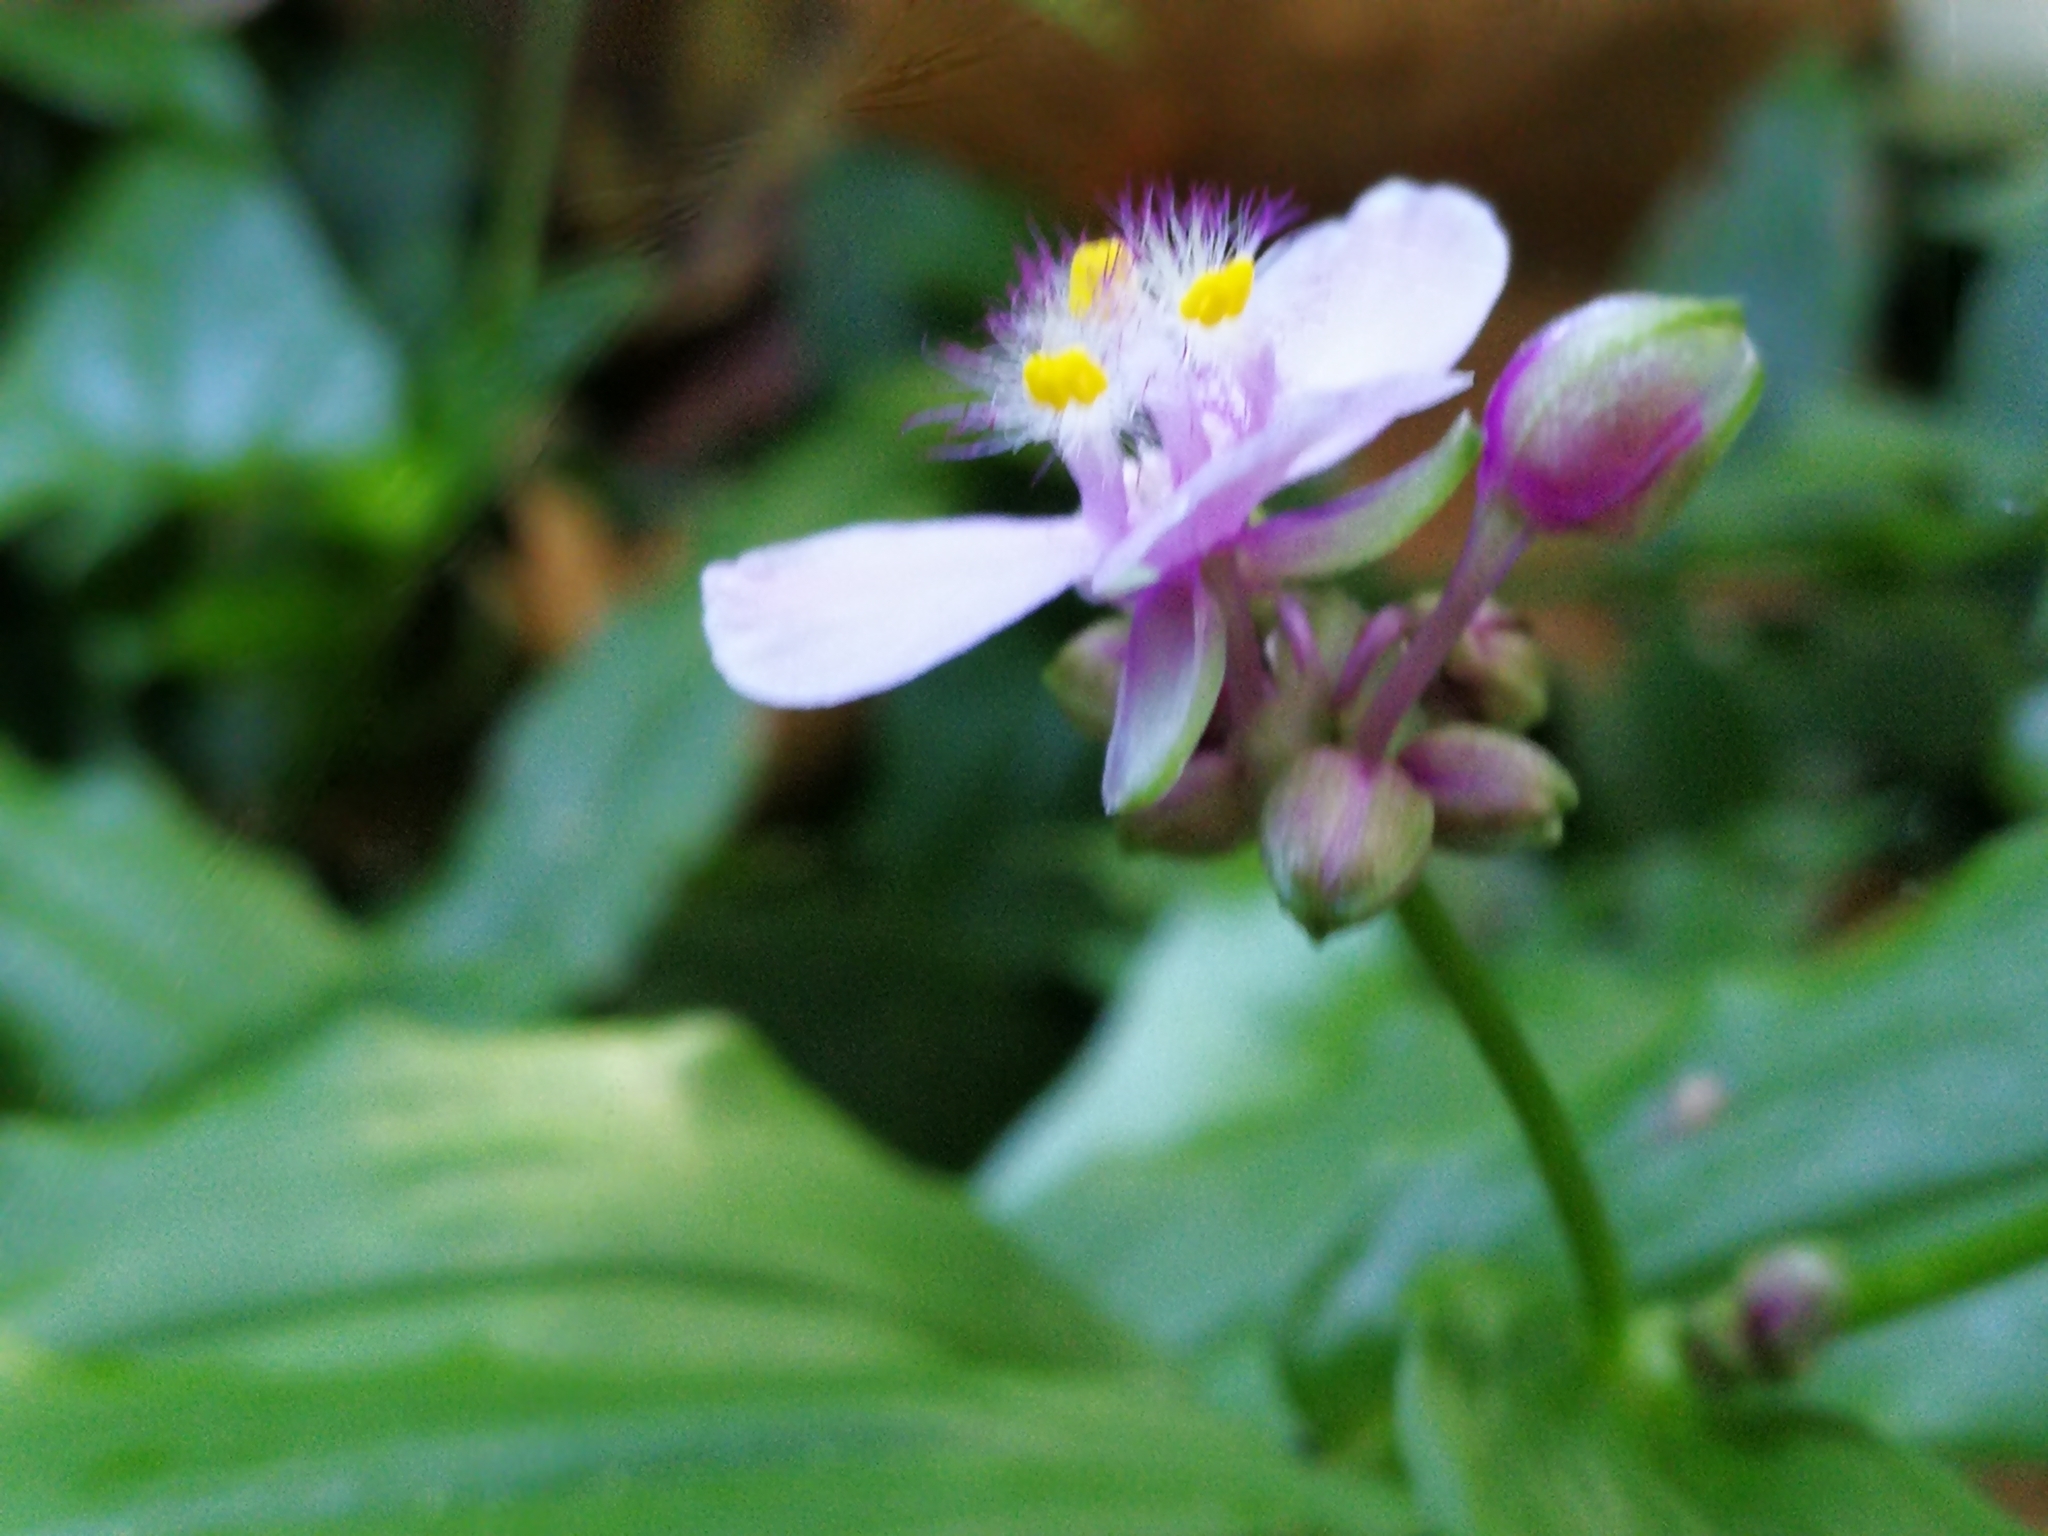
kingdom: Plantae
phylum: Tracheophyta
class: Liliopsida
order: Commelinales
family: Commelinaceae
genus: Callisia
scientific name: Callisia diuretica
